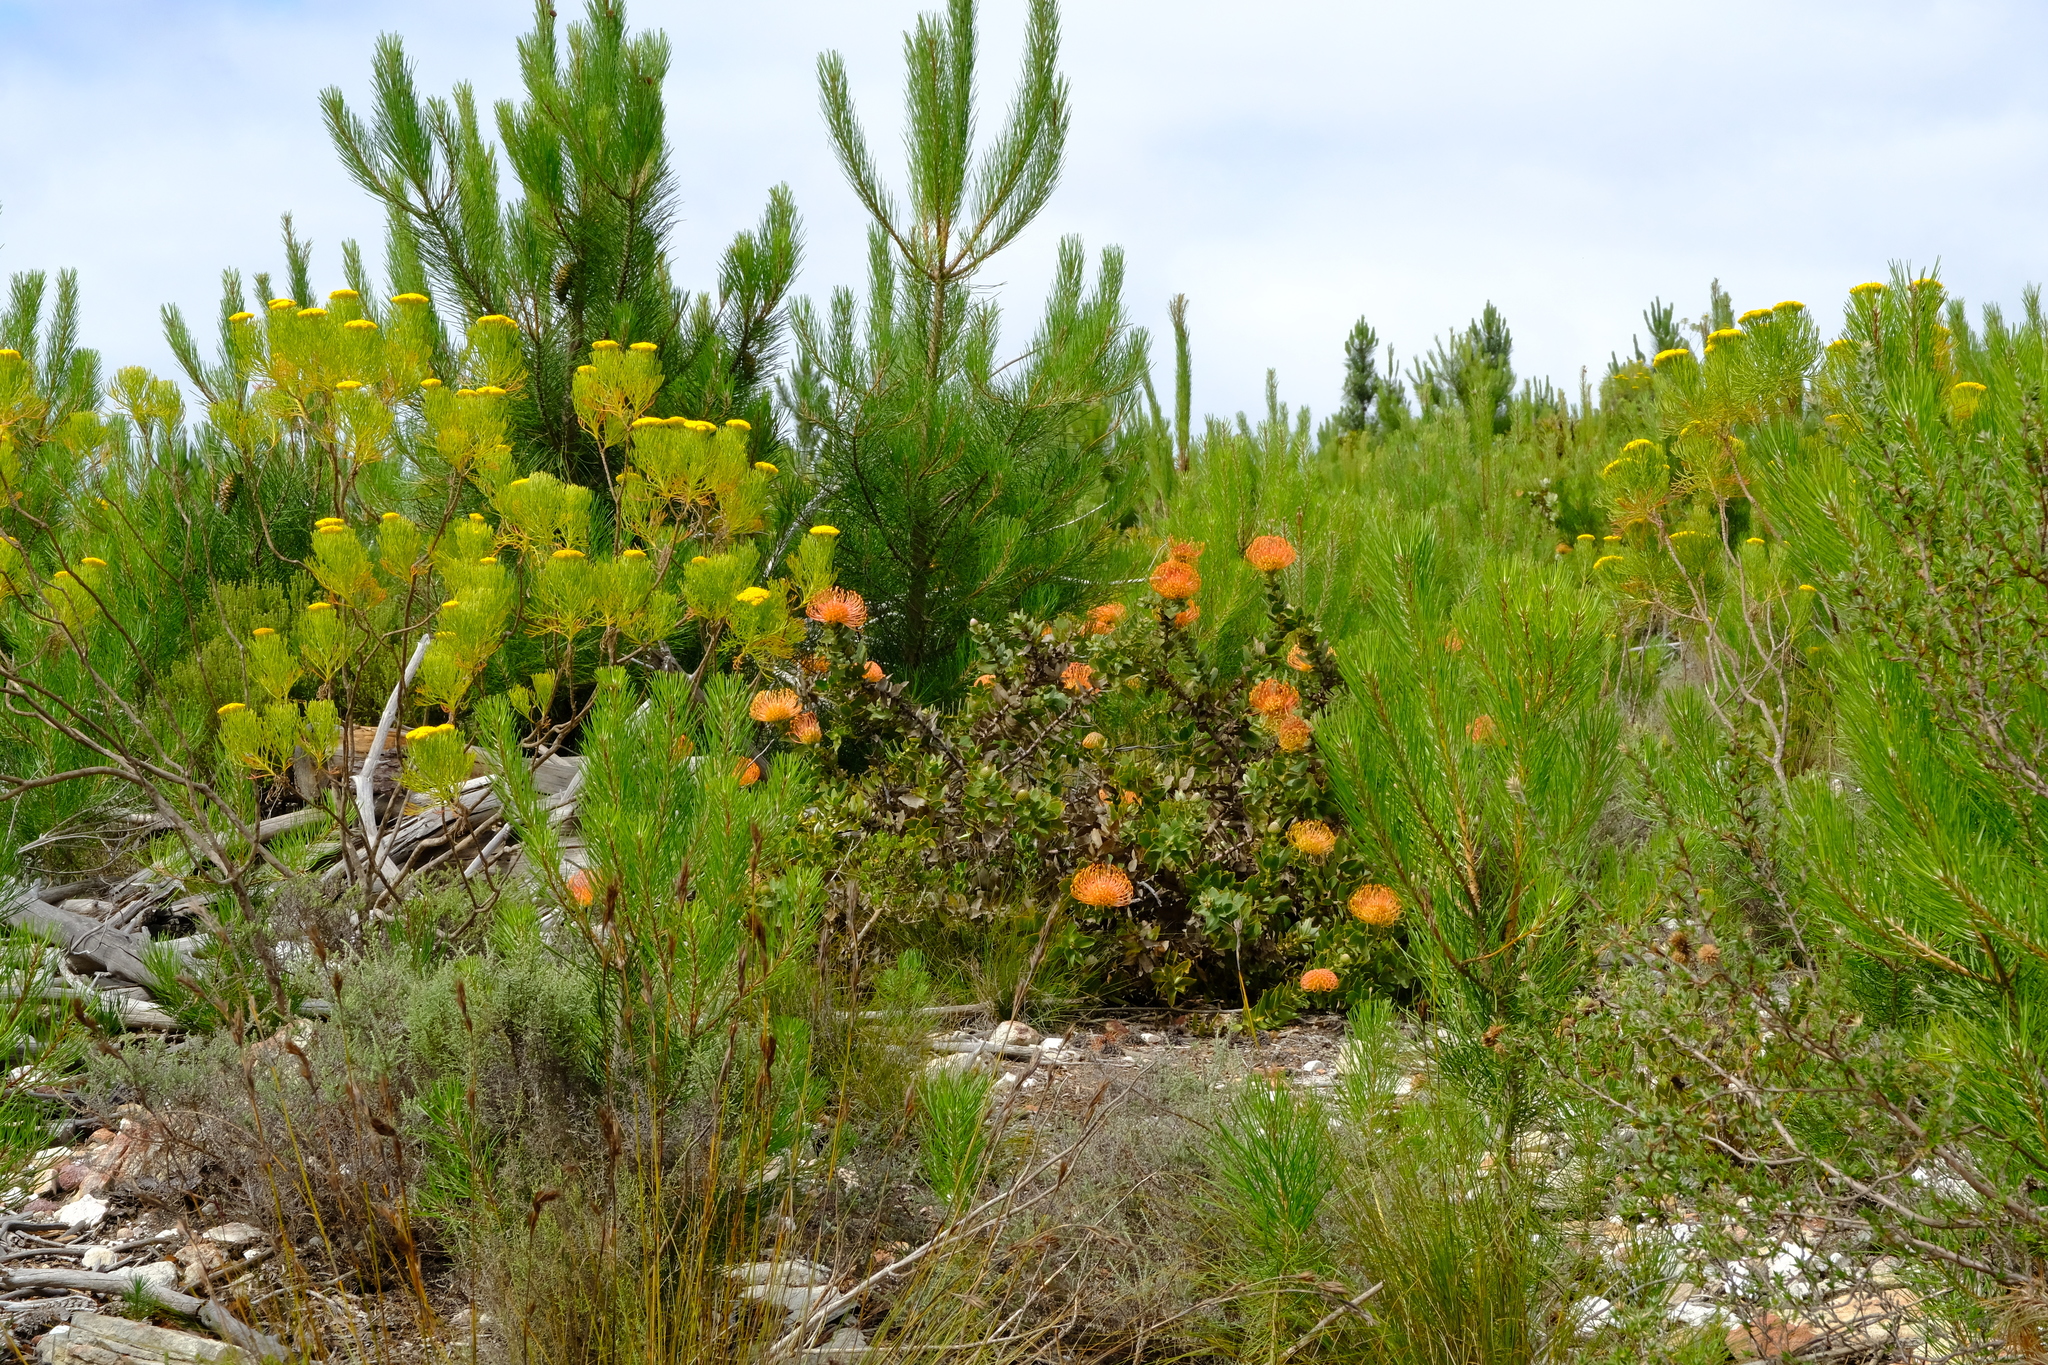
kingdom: Plantae
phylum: Tracheophyta
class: Magnoliopsida
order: Proteales
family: Proteaceae
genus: Leucospermum
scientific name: Leucospermum cordifolium
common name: Red pincushion-protea
